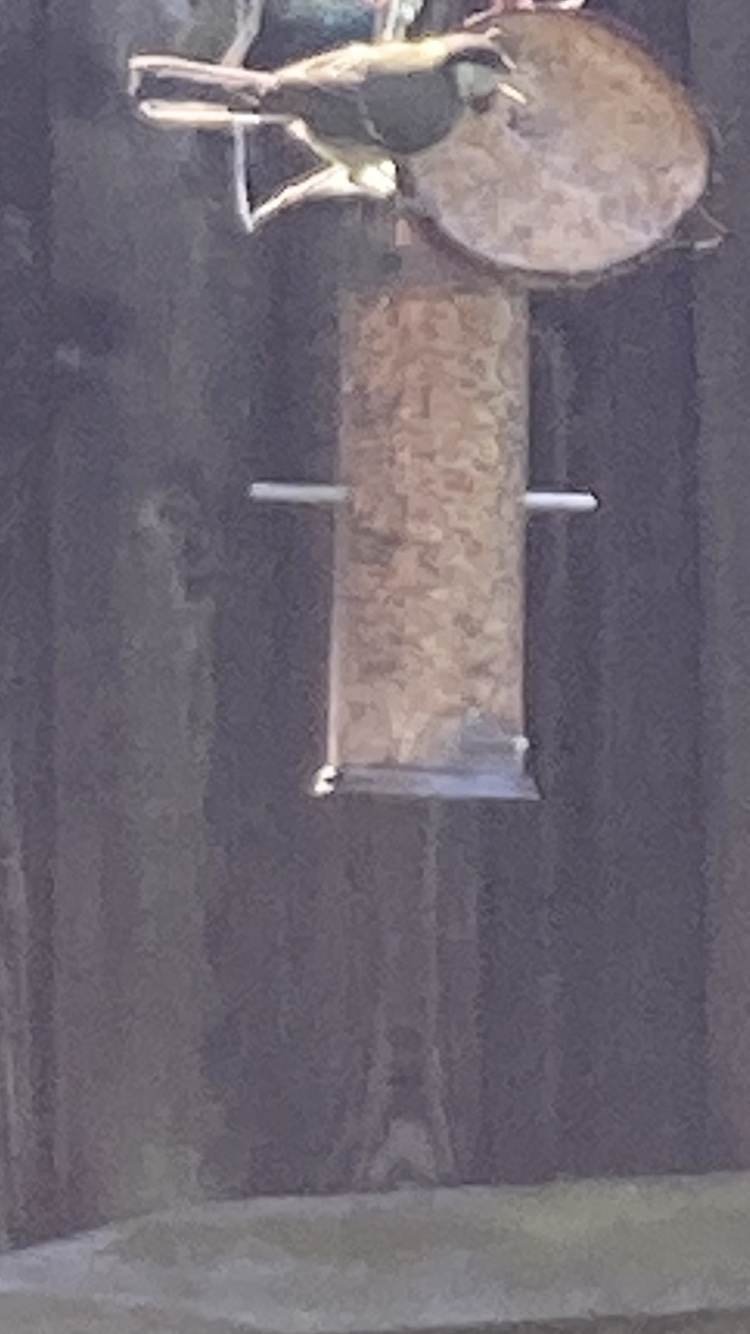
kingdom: Animalia
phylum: Chordata
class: Aves
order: Passeriformes
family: Paridae
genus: Parus
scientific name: Parus major
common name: Great tit
